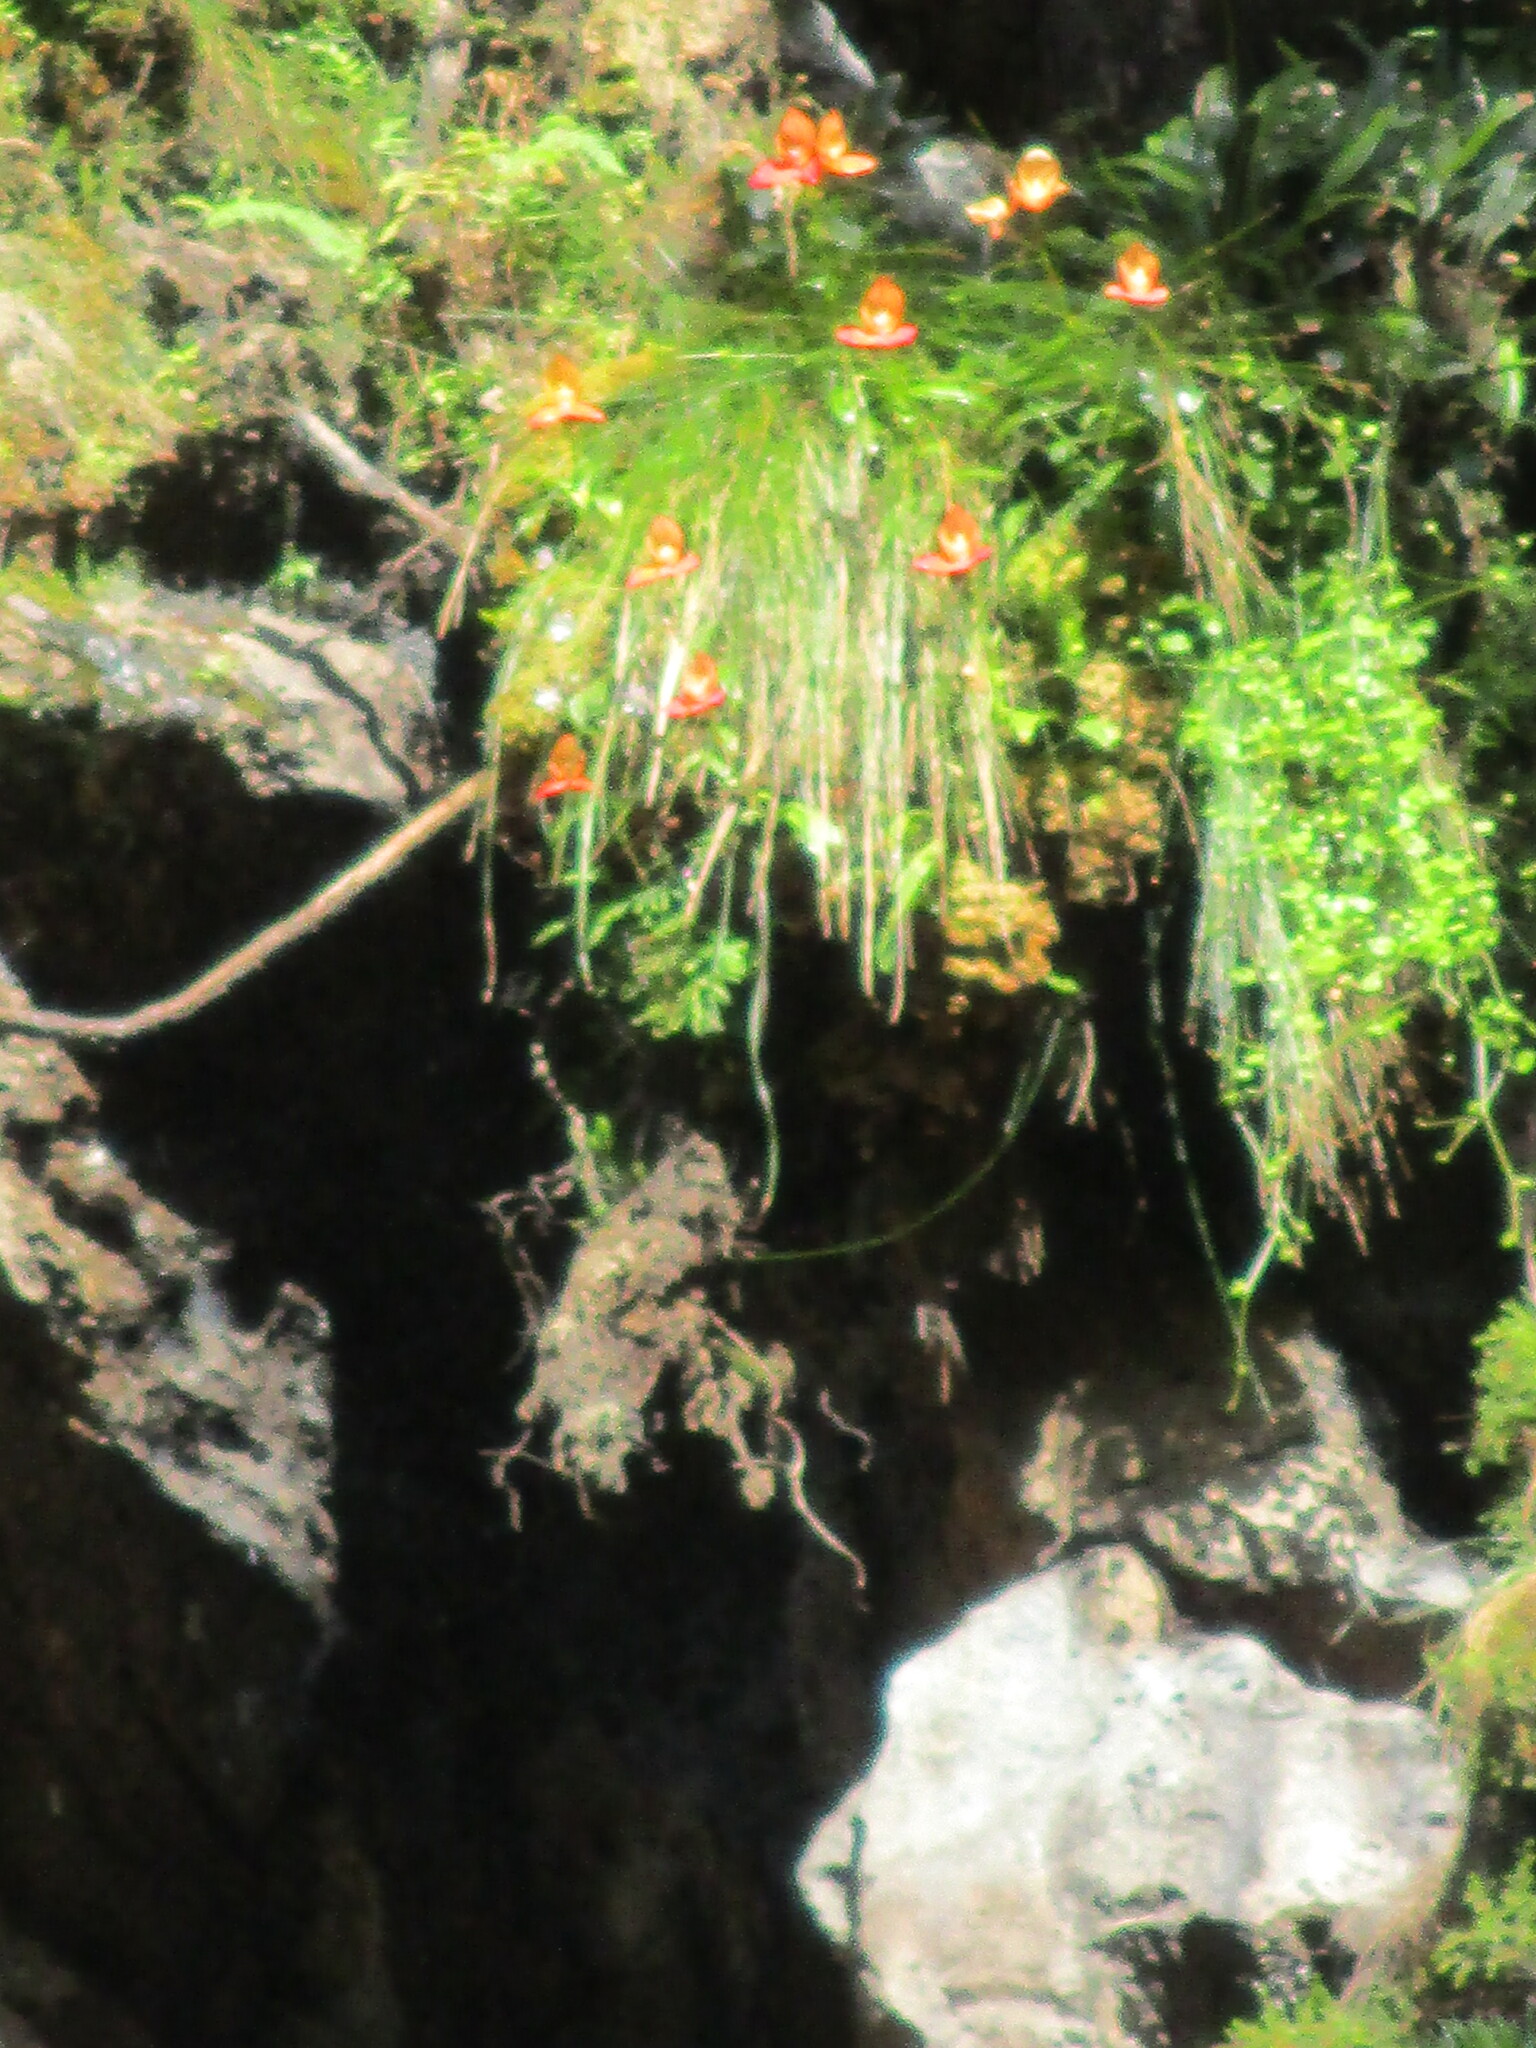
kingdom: Plantae
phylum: Tracheophyta
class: Liliopsida
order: Asparagales
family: Orchidaceae
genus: Disa
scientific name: Disa uniflora
